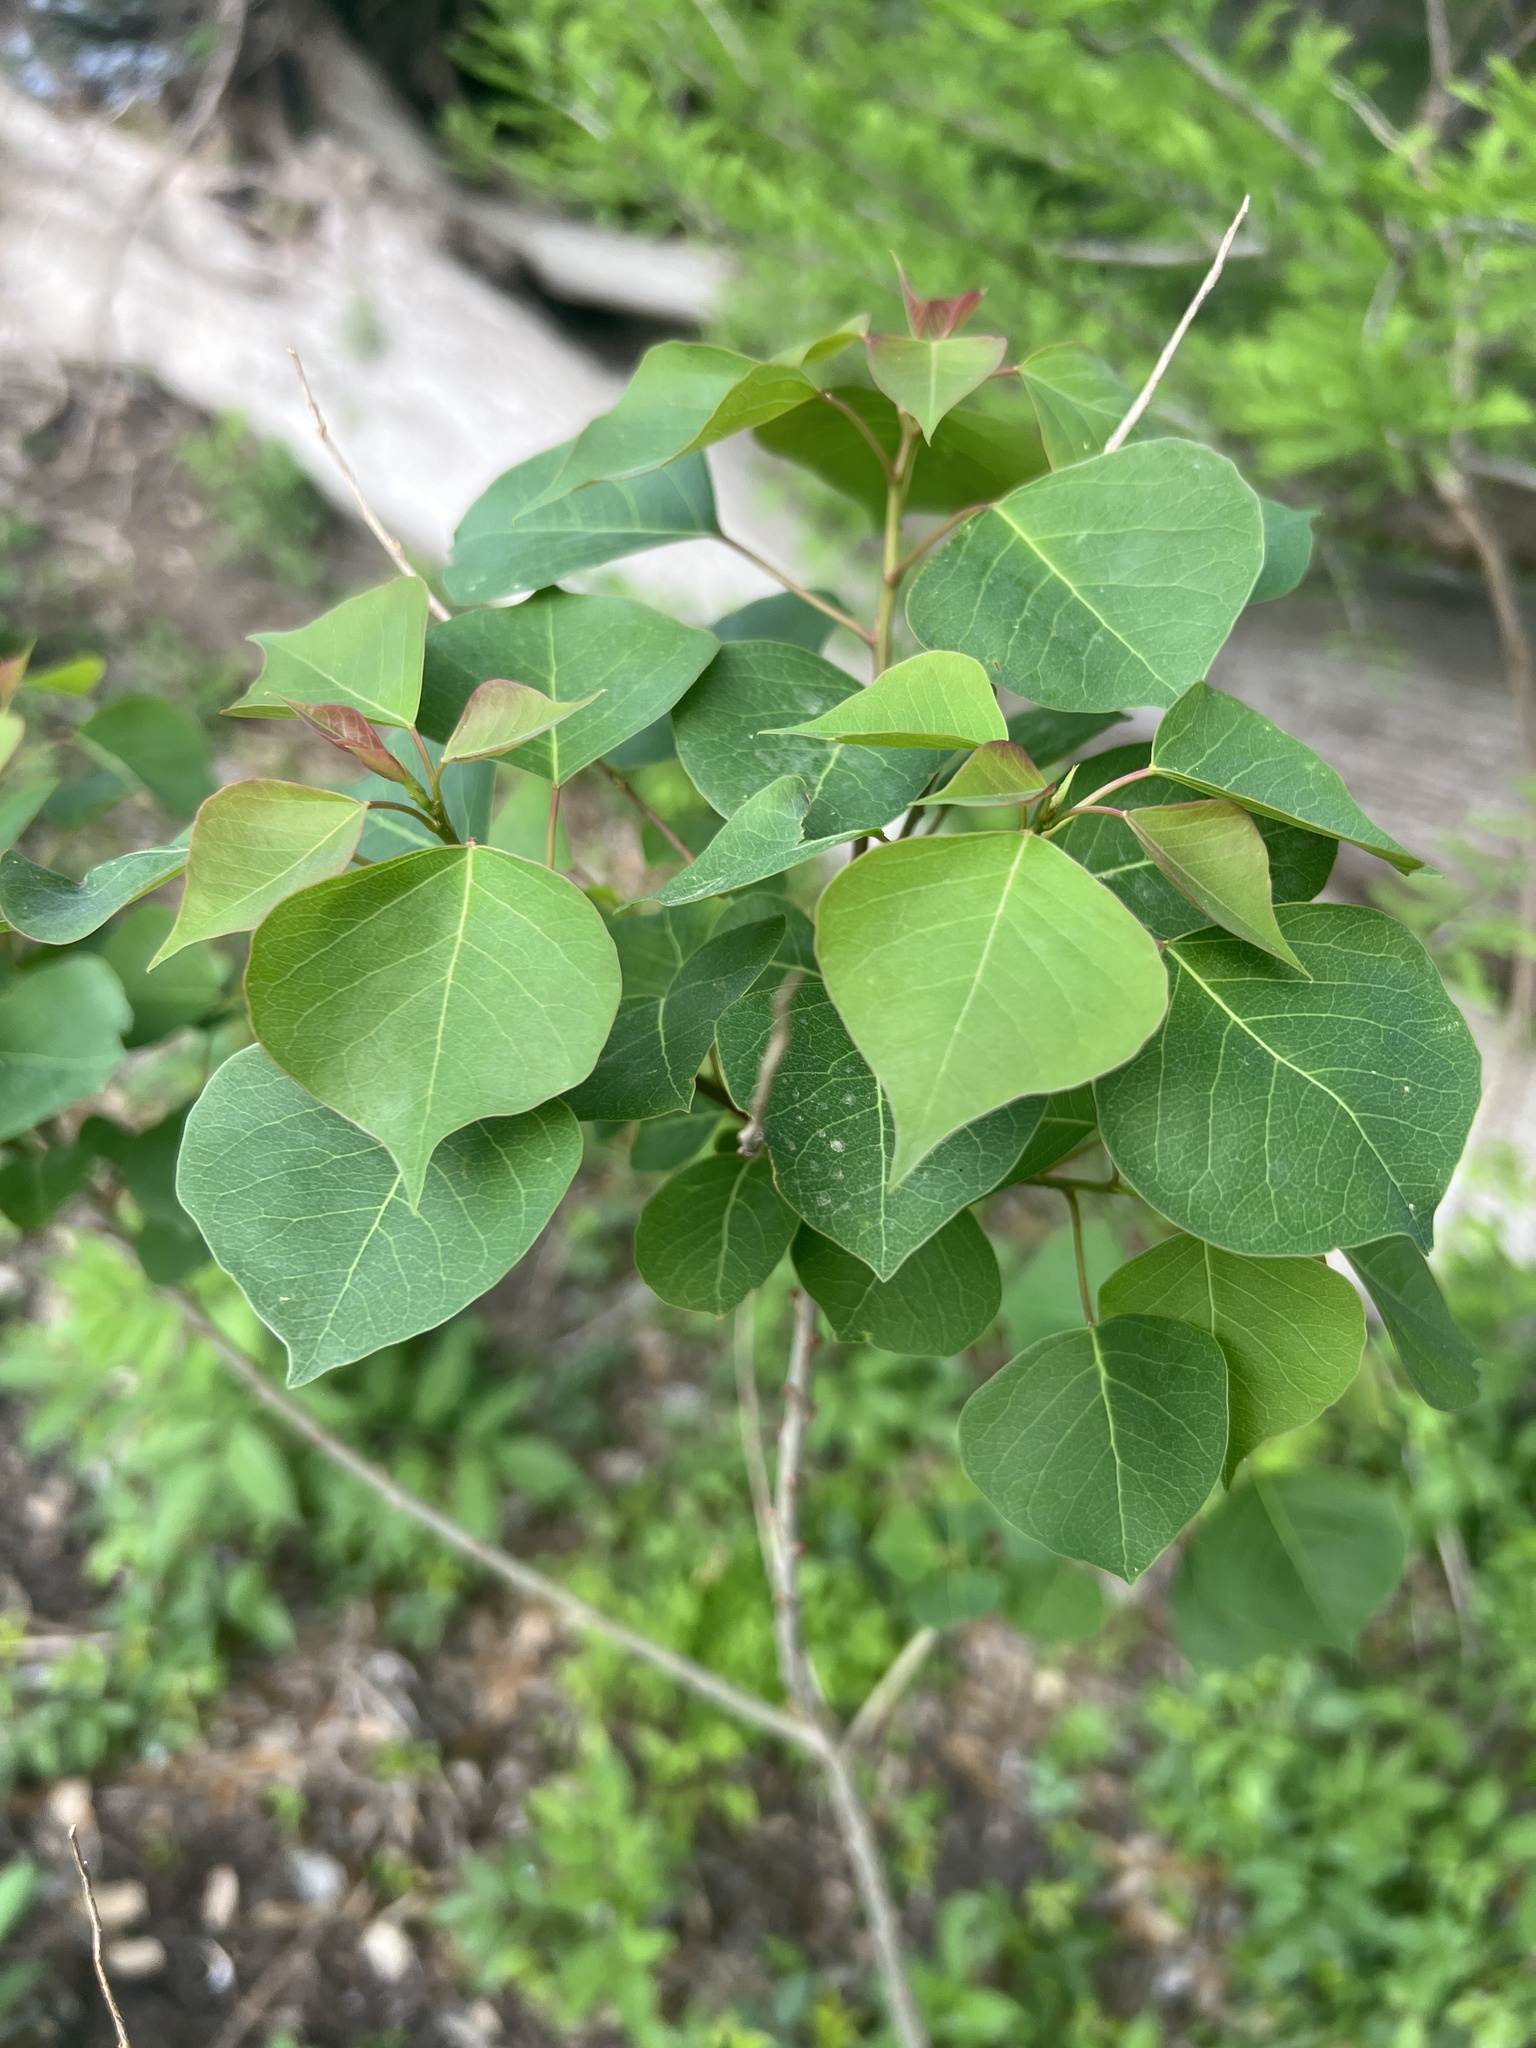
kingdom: Plantae
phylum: Tracheophyta
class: Magnoliopsida
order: Malpighiales
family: Euphorbiaceae
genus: Triadica
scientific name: Triadica sebifera
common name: Chinese tallow
